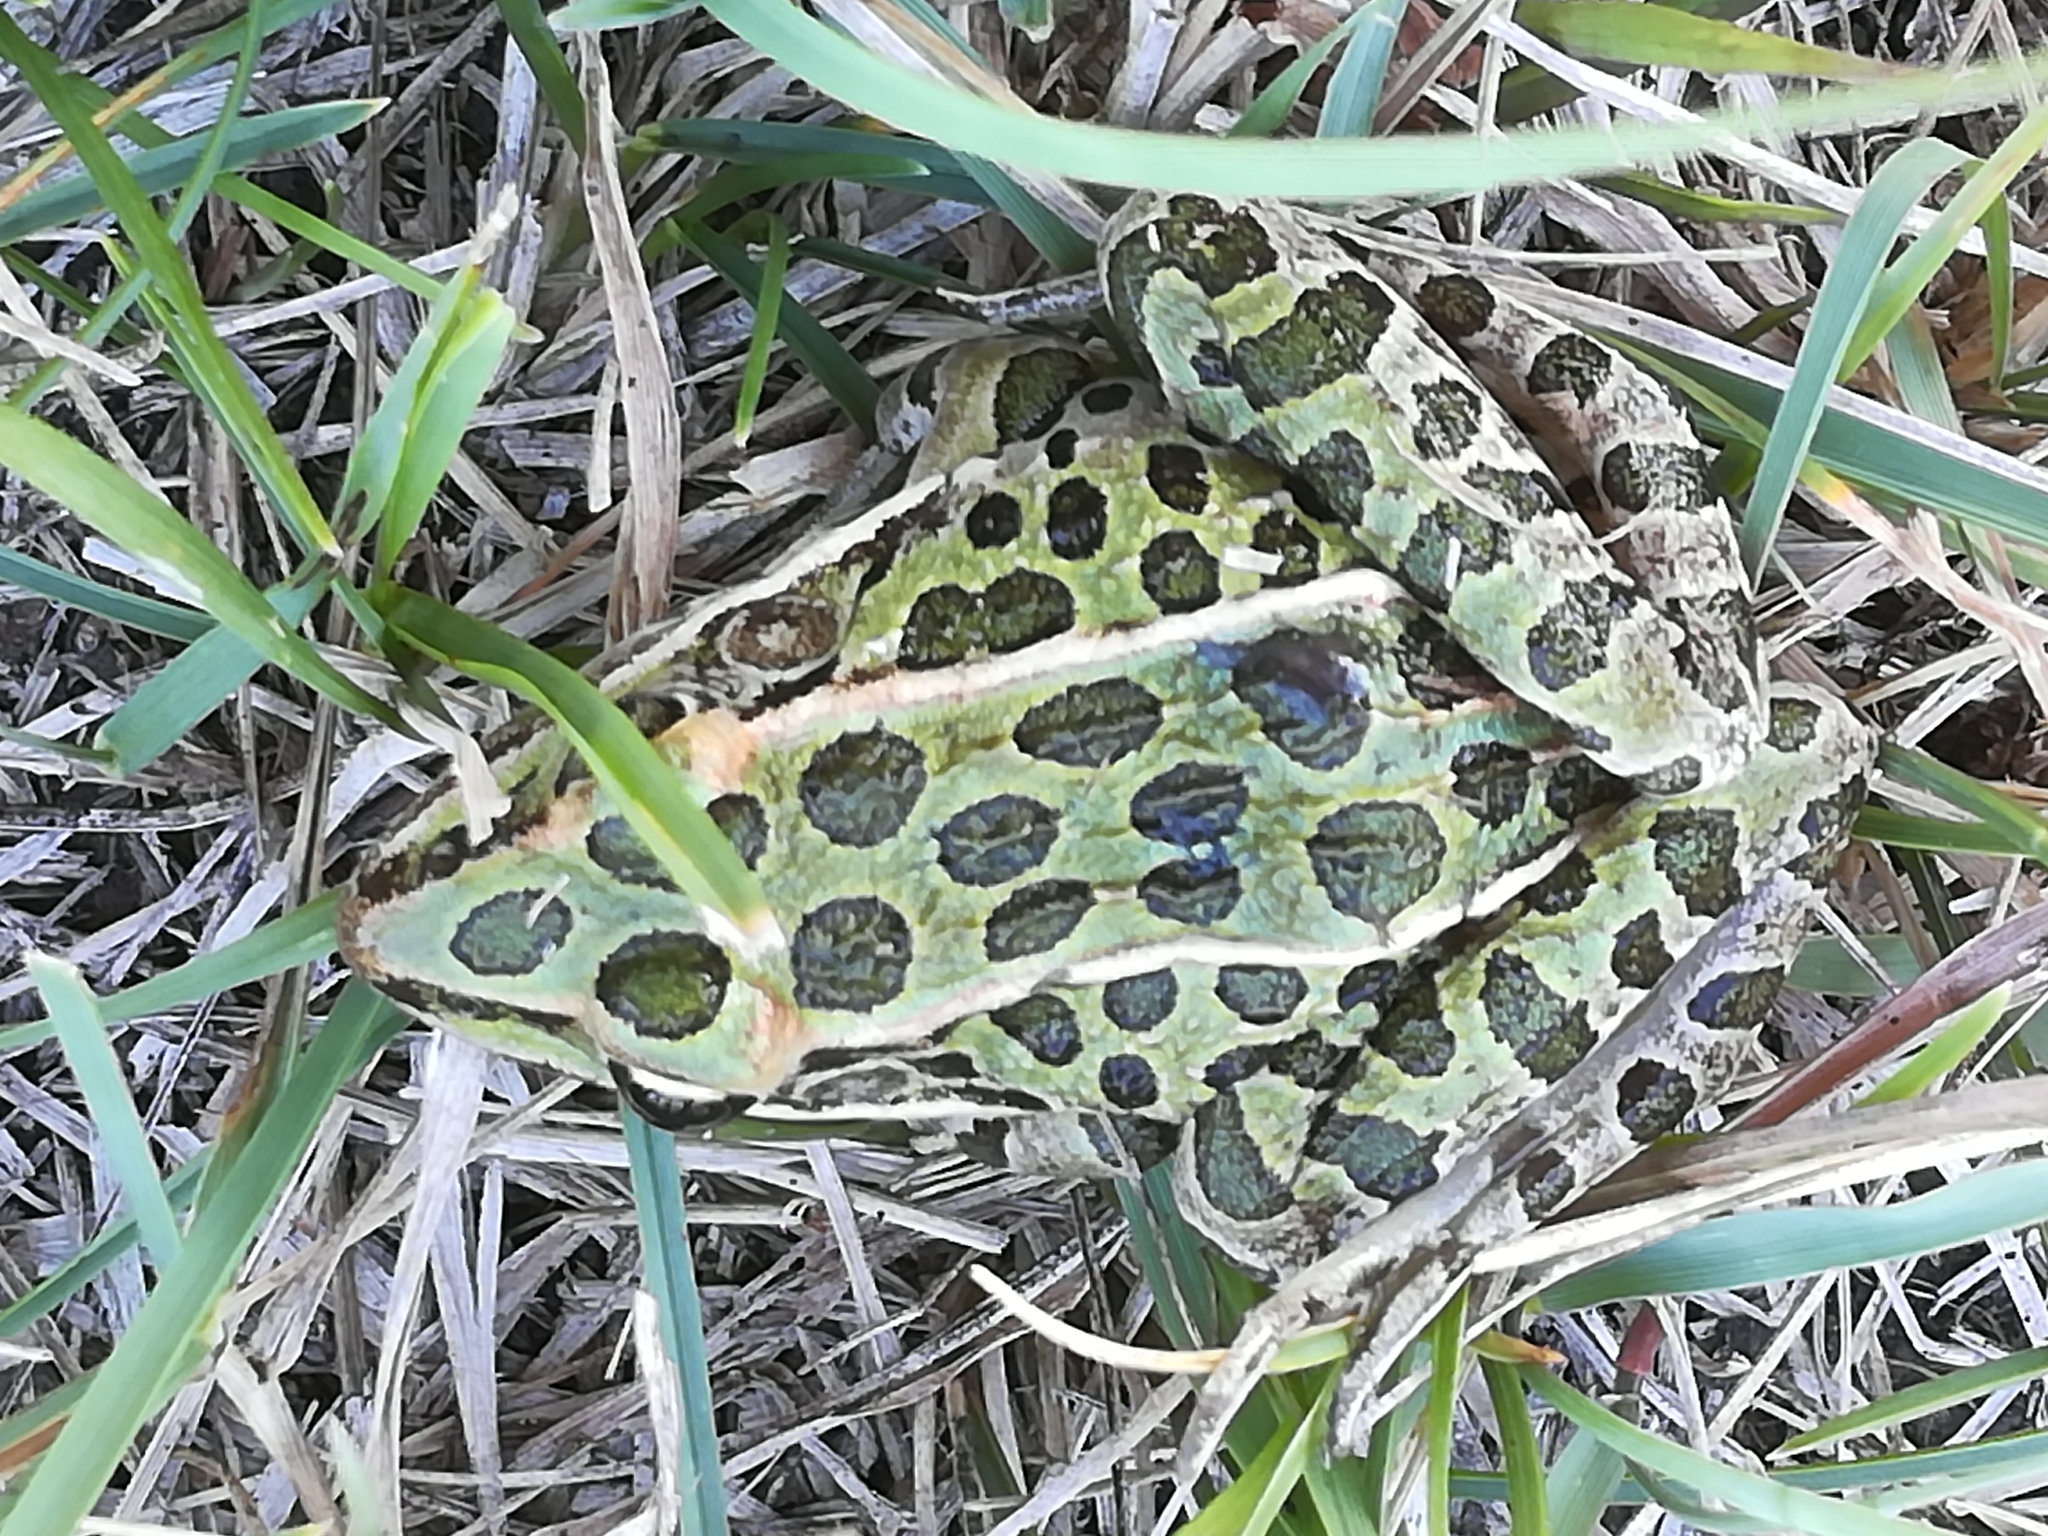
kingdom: Animalia
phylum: Chordata
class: Amphibia
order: Anura
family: Ranidae
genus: Lithobates
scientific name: Lithobates pipiens
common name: Northern leopard frog
